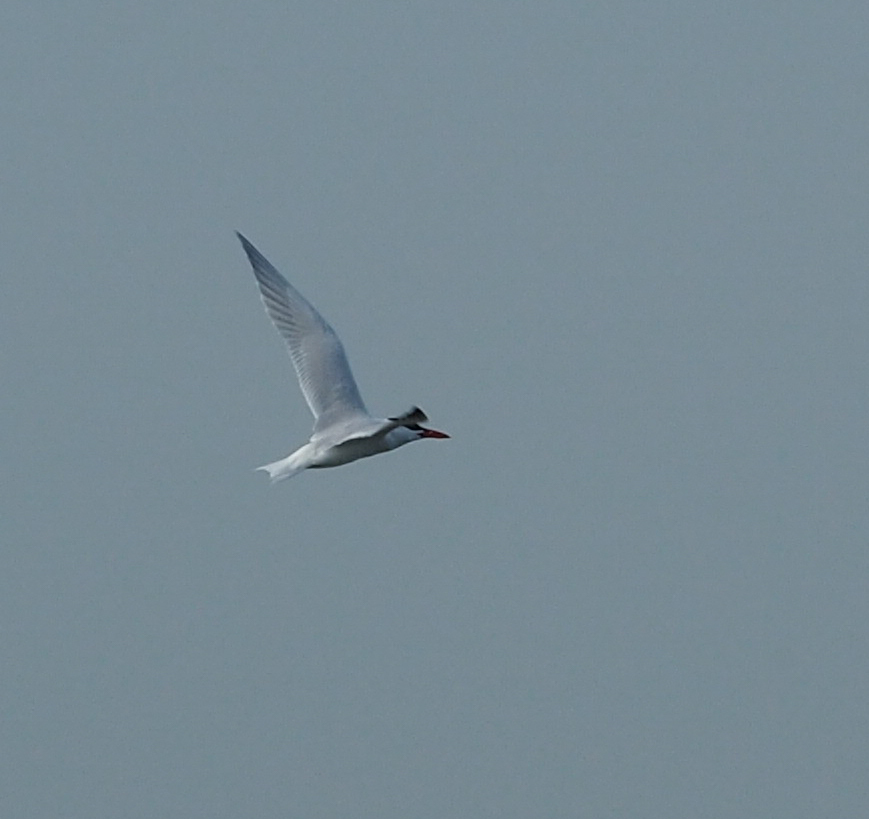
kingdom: Animalia
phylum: Chordata
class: Aves
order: Charadriiformes
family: Laridae
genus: Hydroprogne
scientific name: Hydroprogne caspia
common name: Caspian tern
